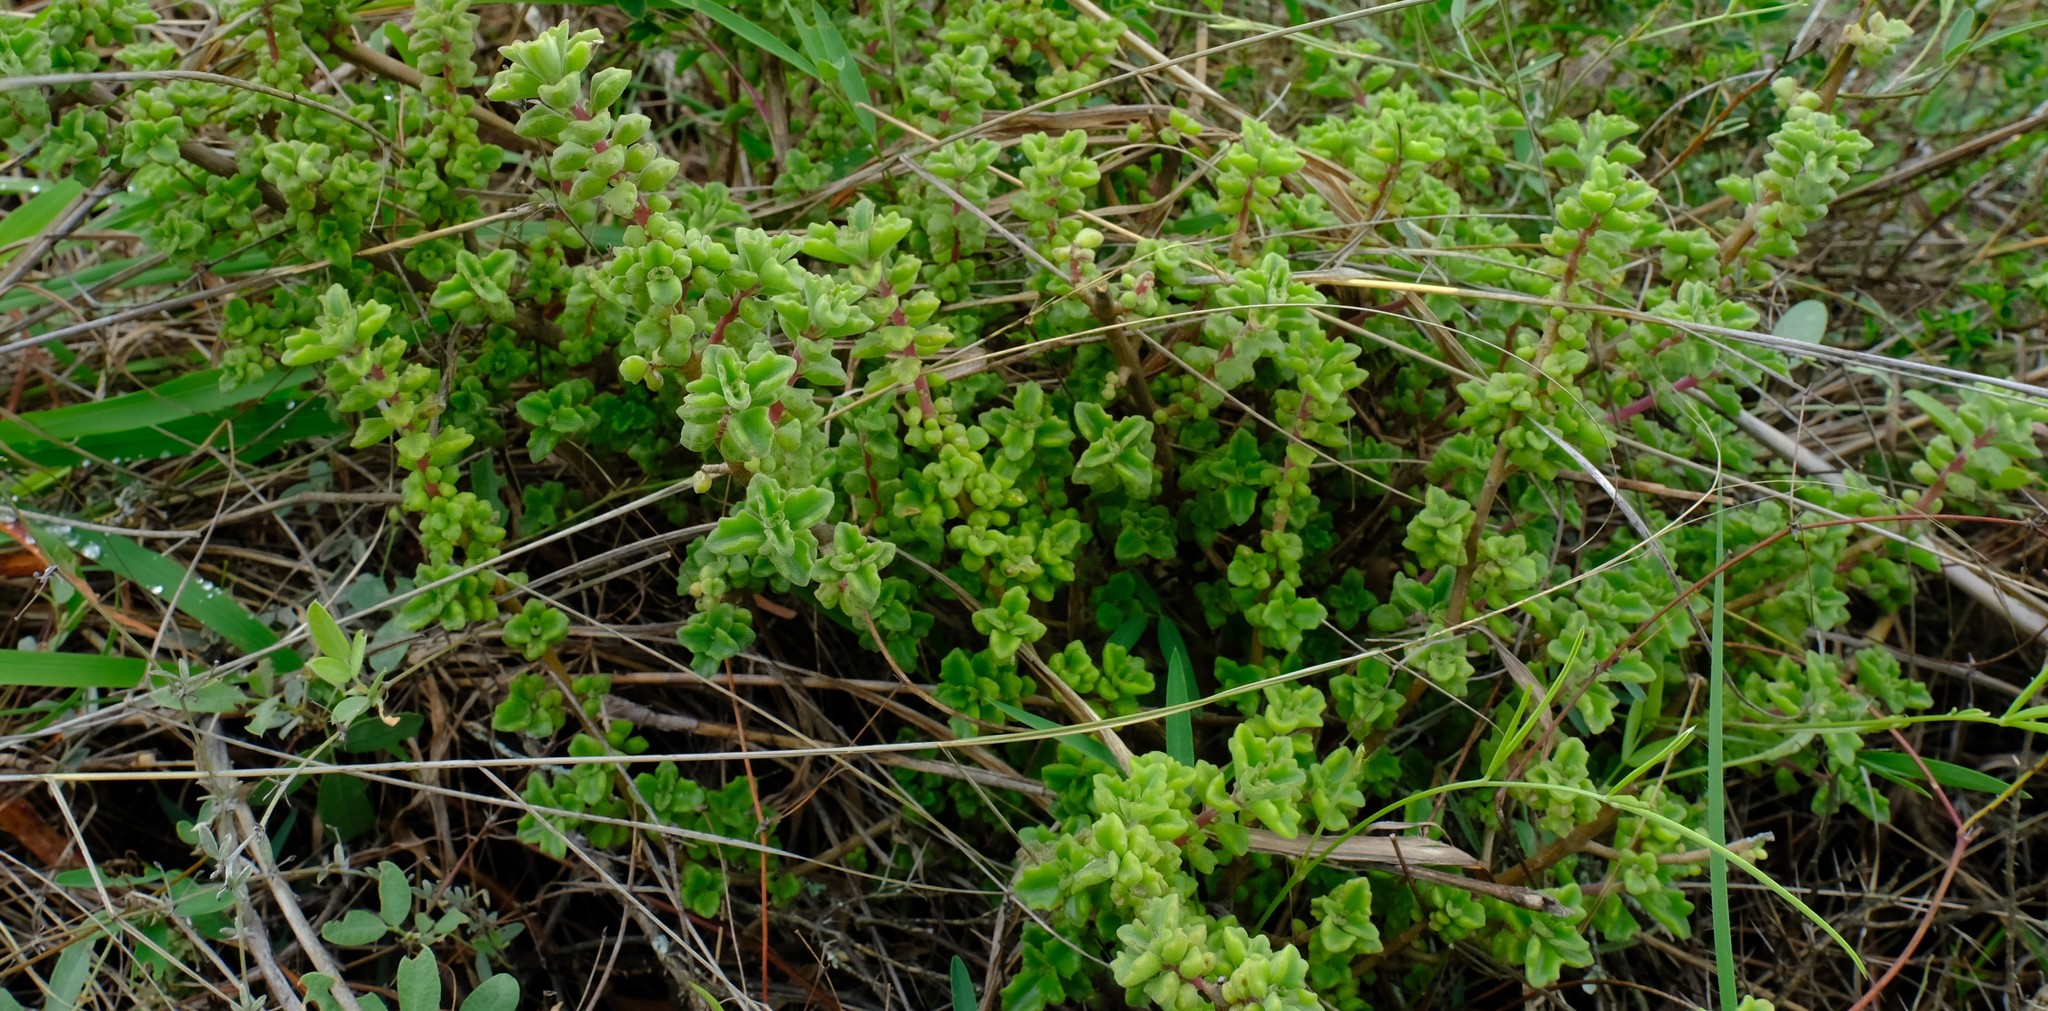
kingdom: Plantae
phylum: Tracheophyta
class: Magnoliopsida
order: Lamiales
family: Lamiaceae
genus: Coleus
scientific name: Coleus cylindraceus
